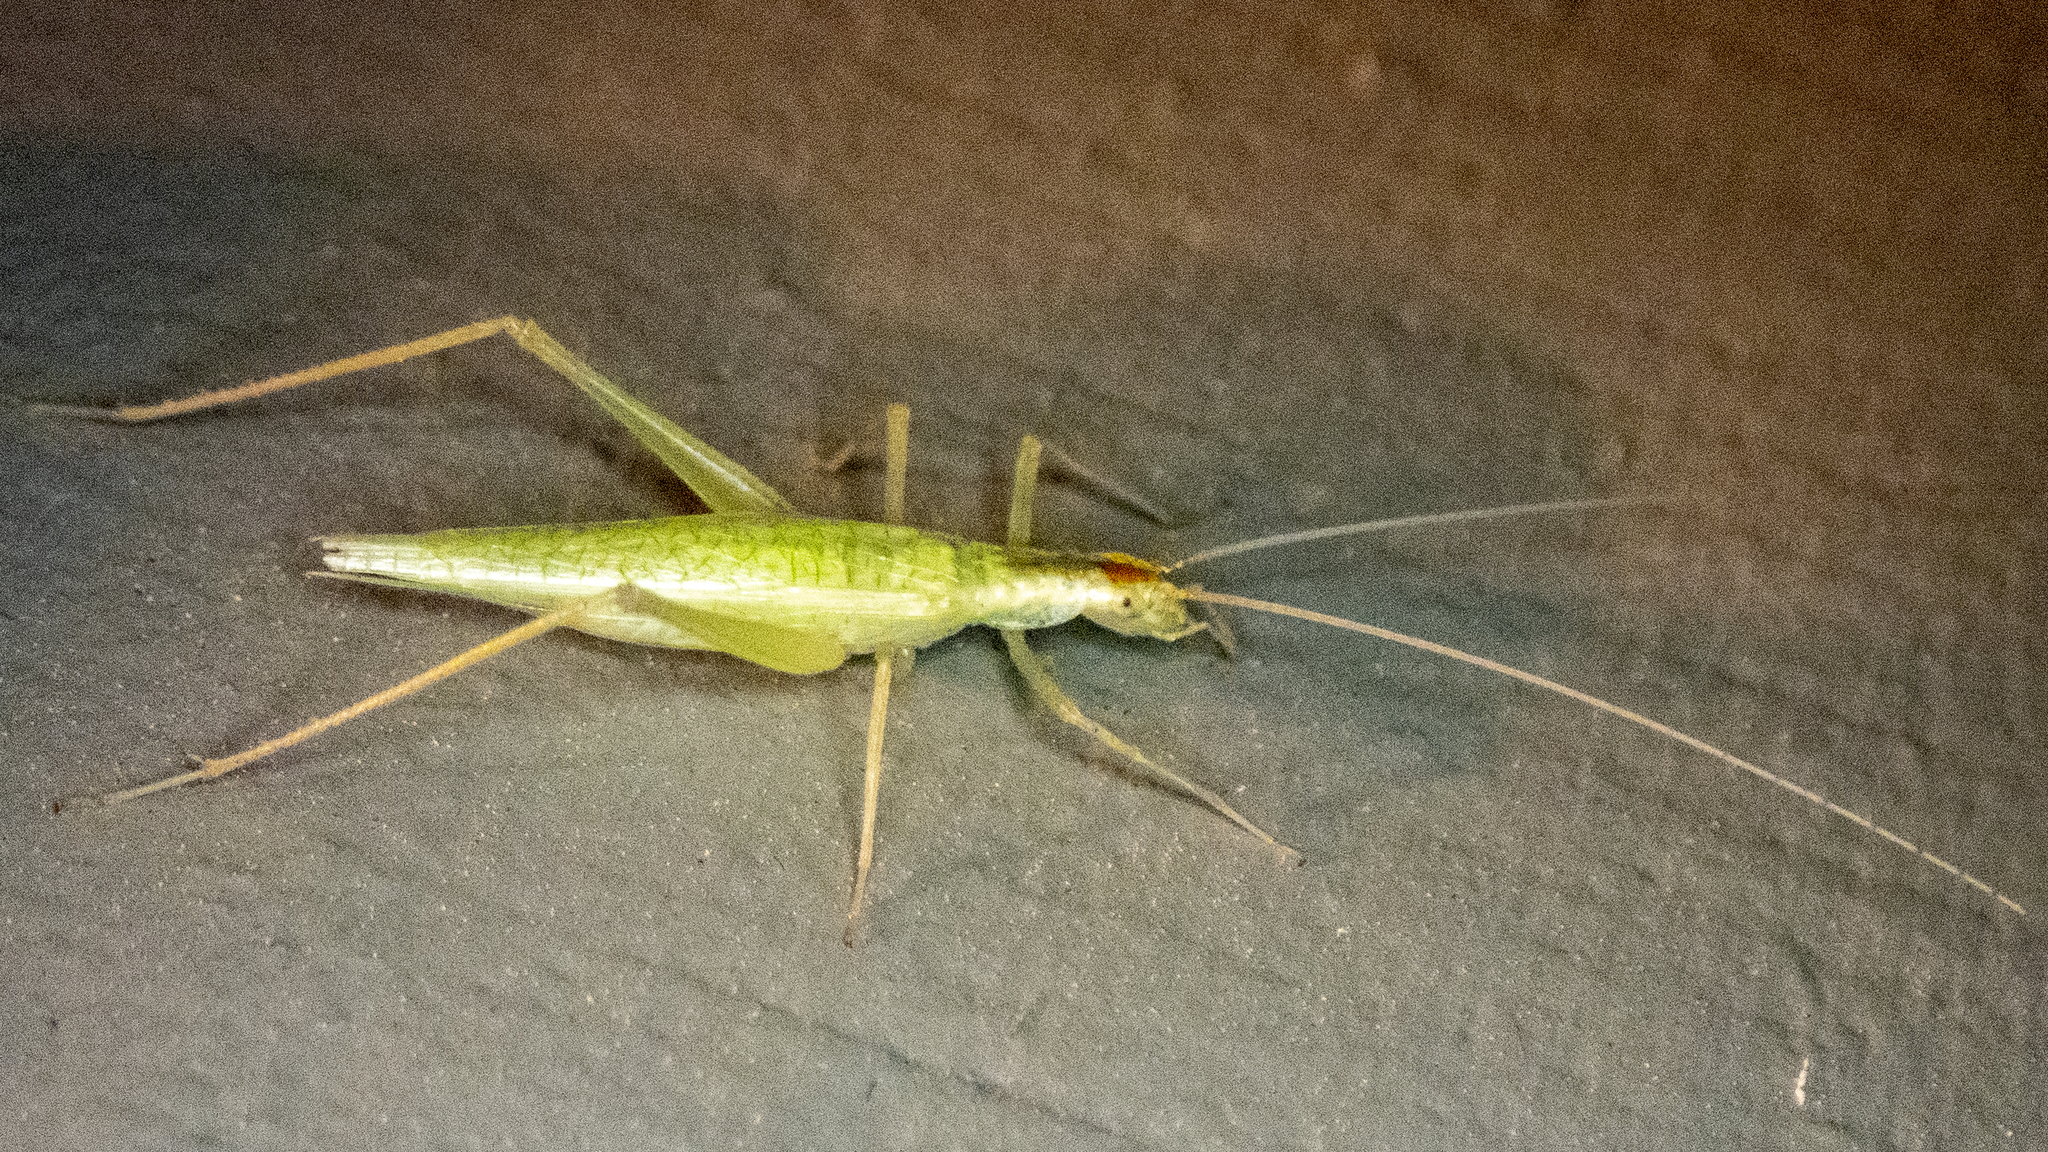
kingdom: Animalia
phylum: Arthropoda
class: Insecta
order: Orthoptera
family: Gryllidae
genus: Oecanthus
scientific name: Oecanthus niveus
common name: Narrow-winged tree cricket
